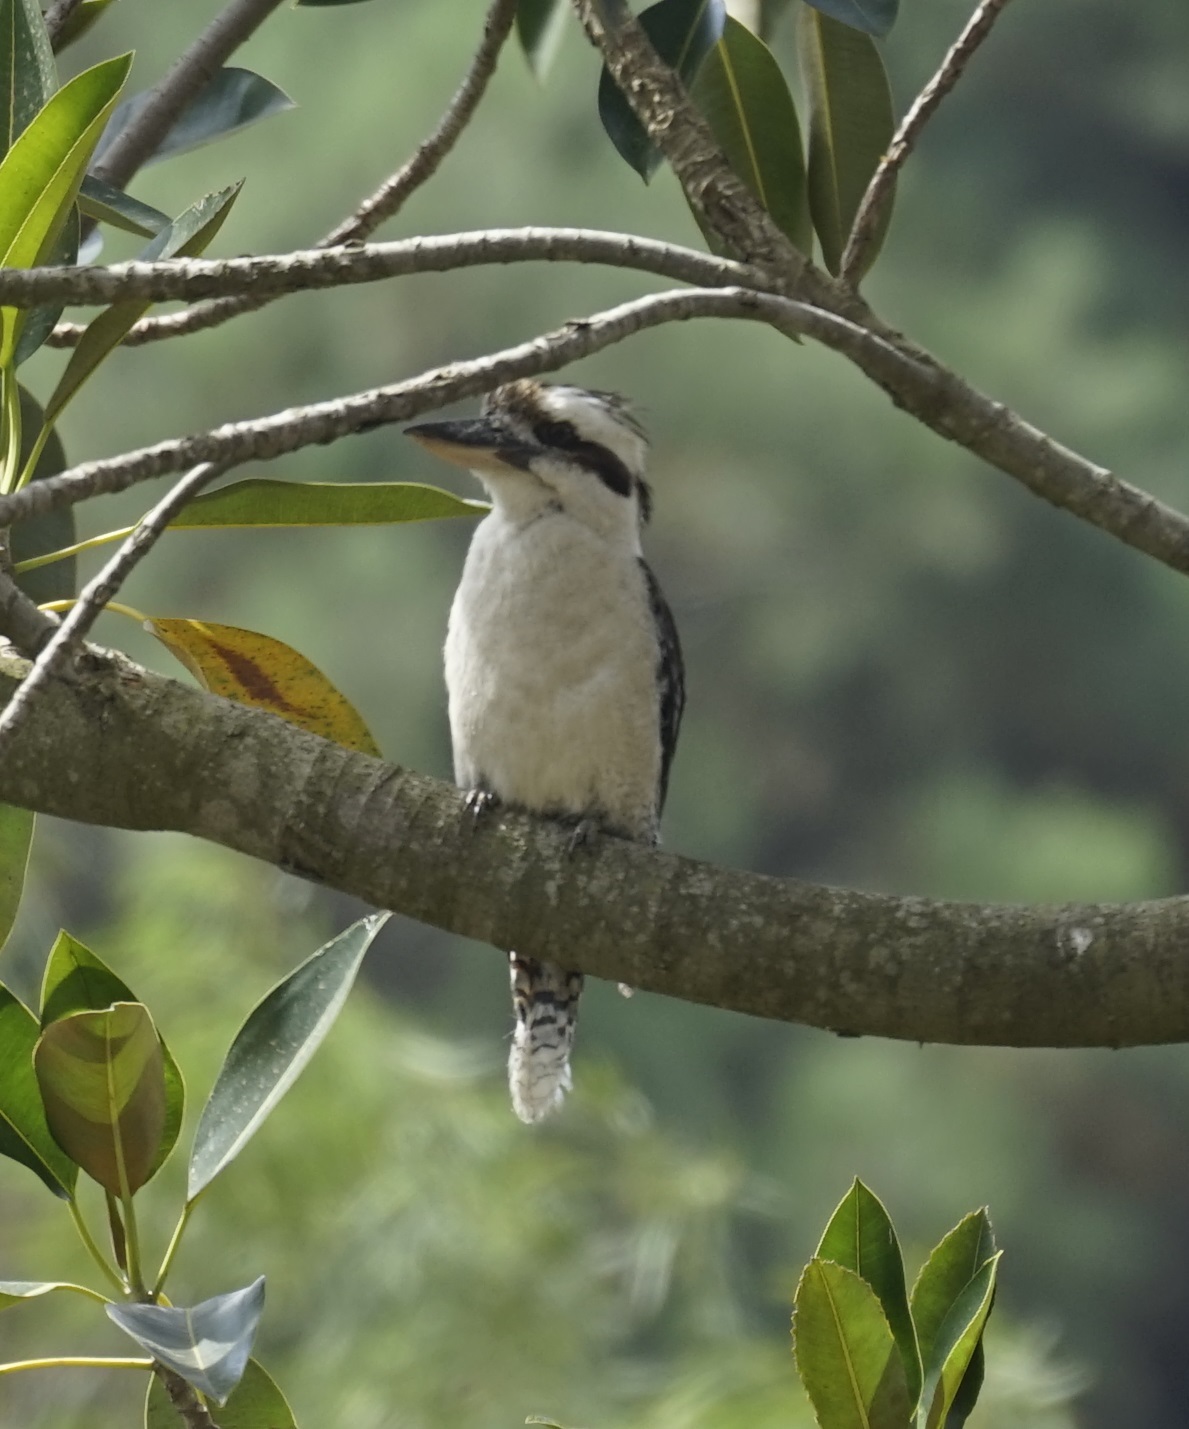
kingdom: Animalia
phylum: Chordata
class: Aves
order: Coraciiformes
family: Alcedinidae
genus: Dacelo
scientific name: Dacelo novaeguineae
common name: Laughing kookaburra
